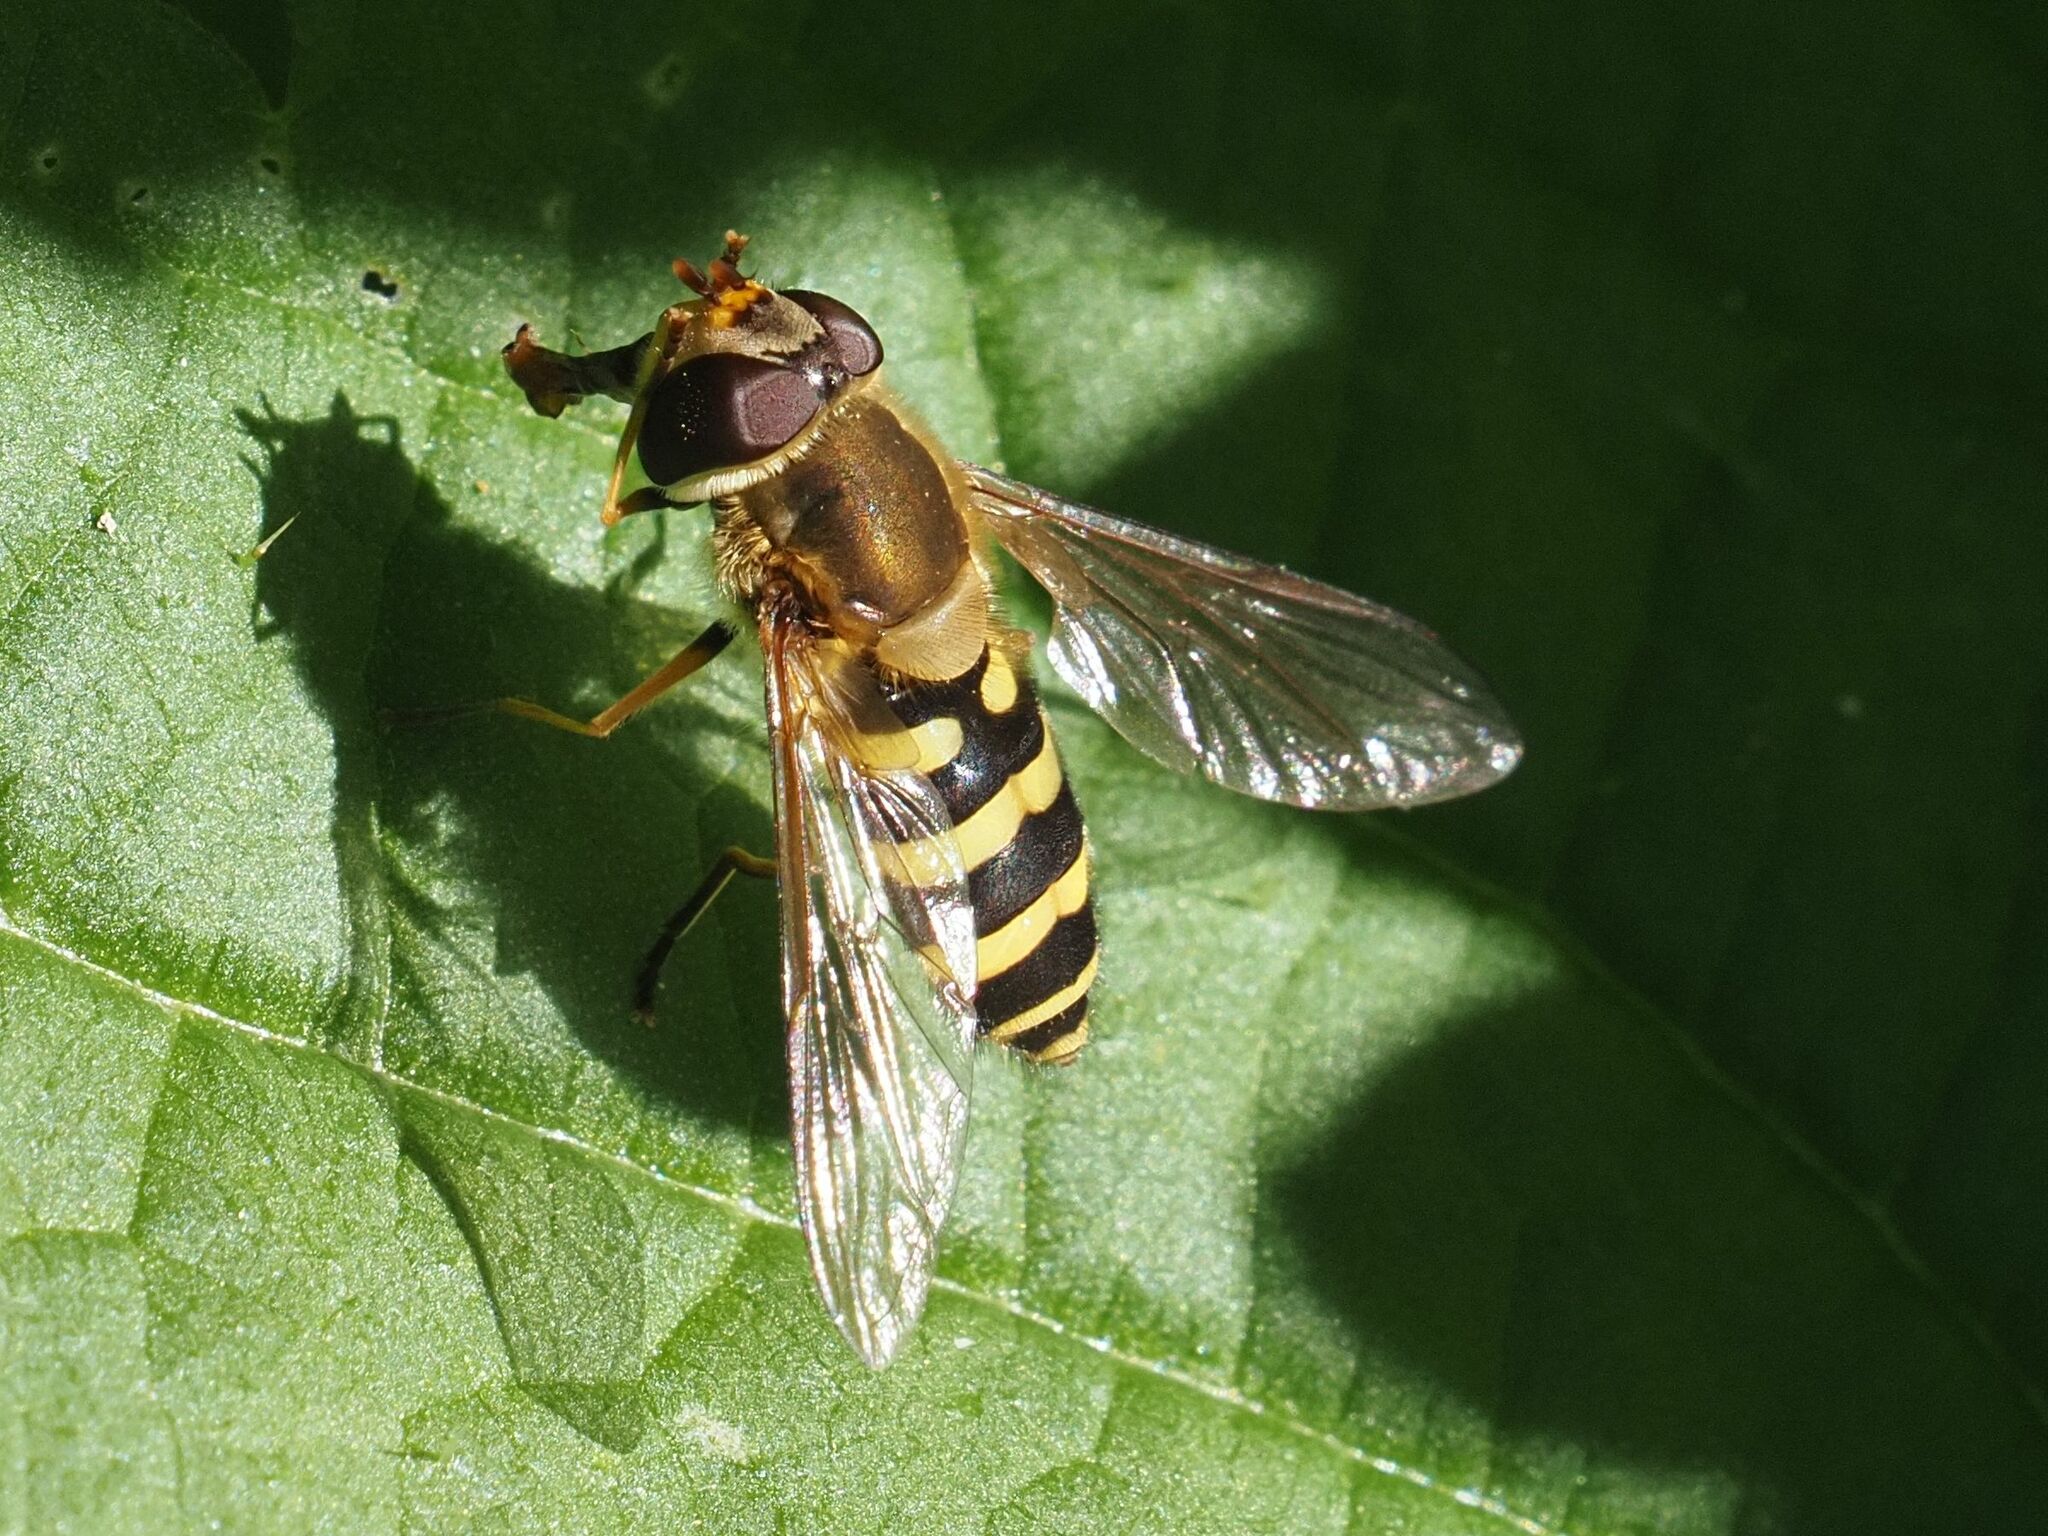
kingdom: Animalia
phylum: Arthropoda
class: Insecta
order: Diptera
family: Syrphidae
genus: Syrphus
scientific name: Syrphus torvus
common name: Hairy-eyed flower fly
